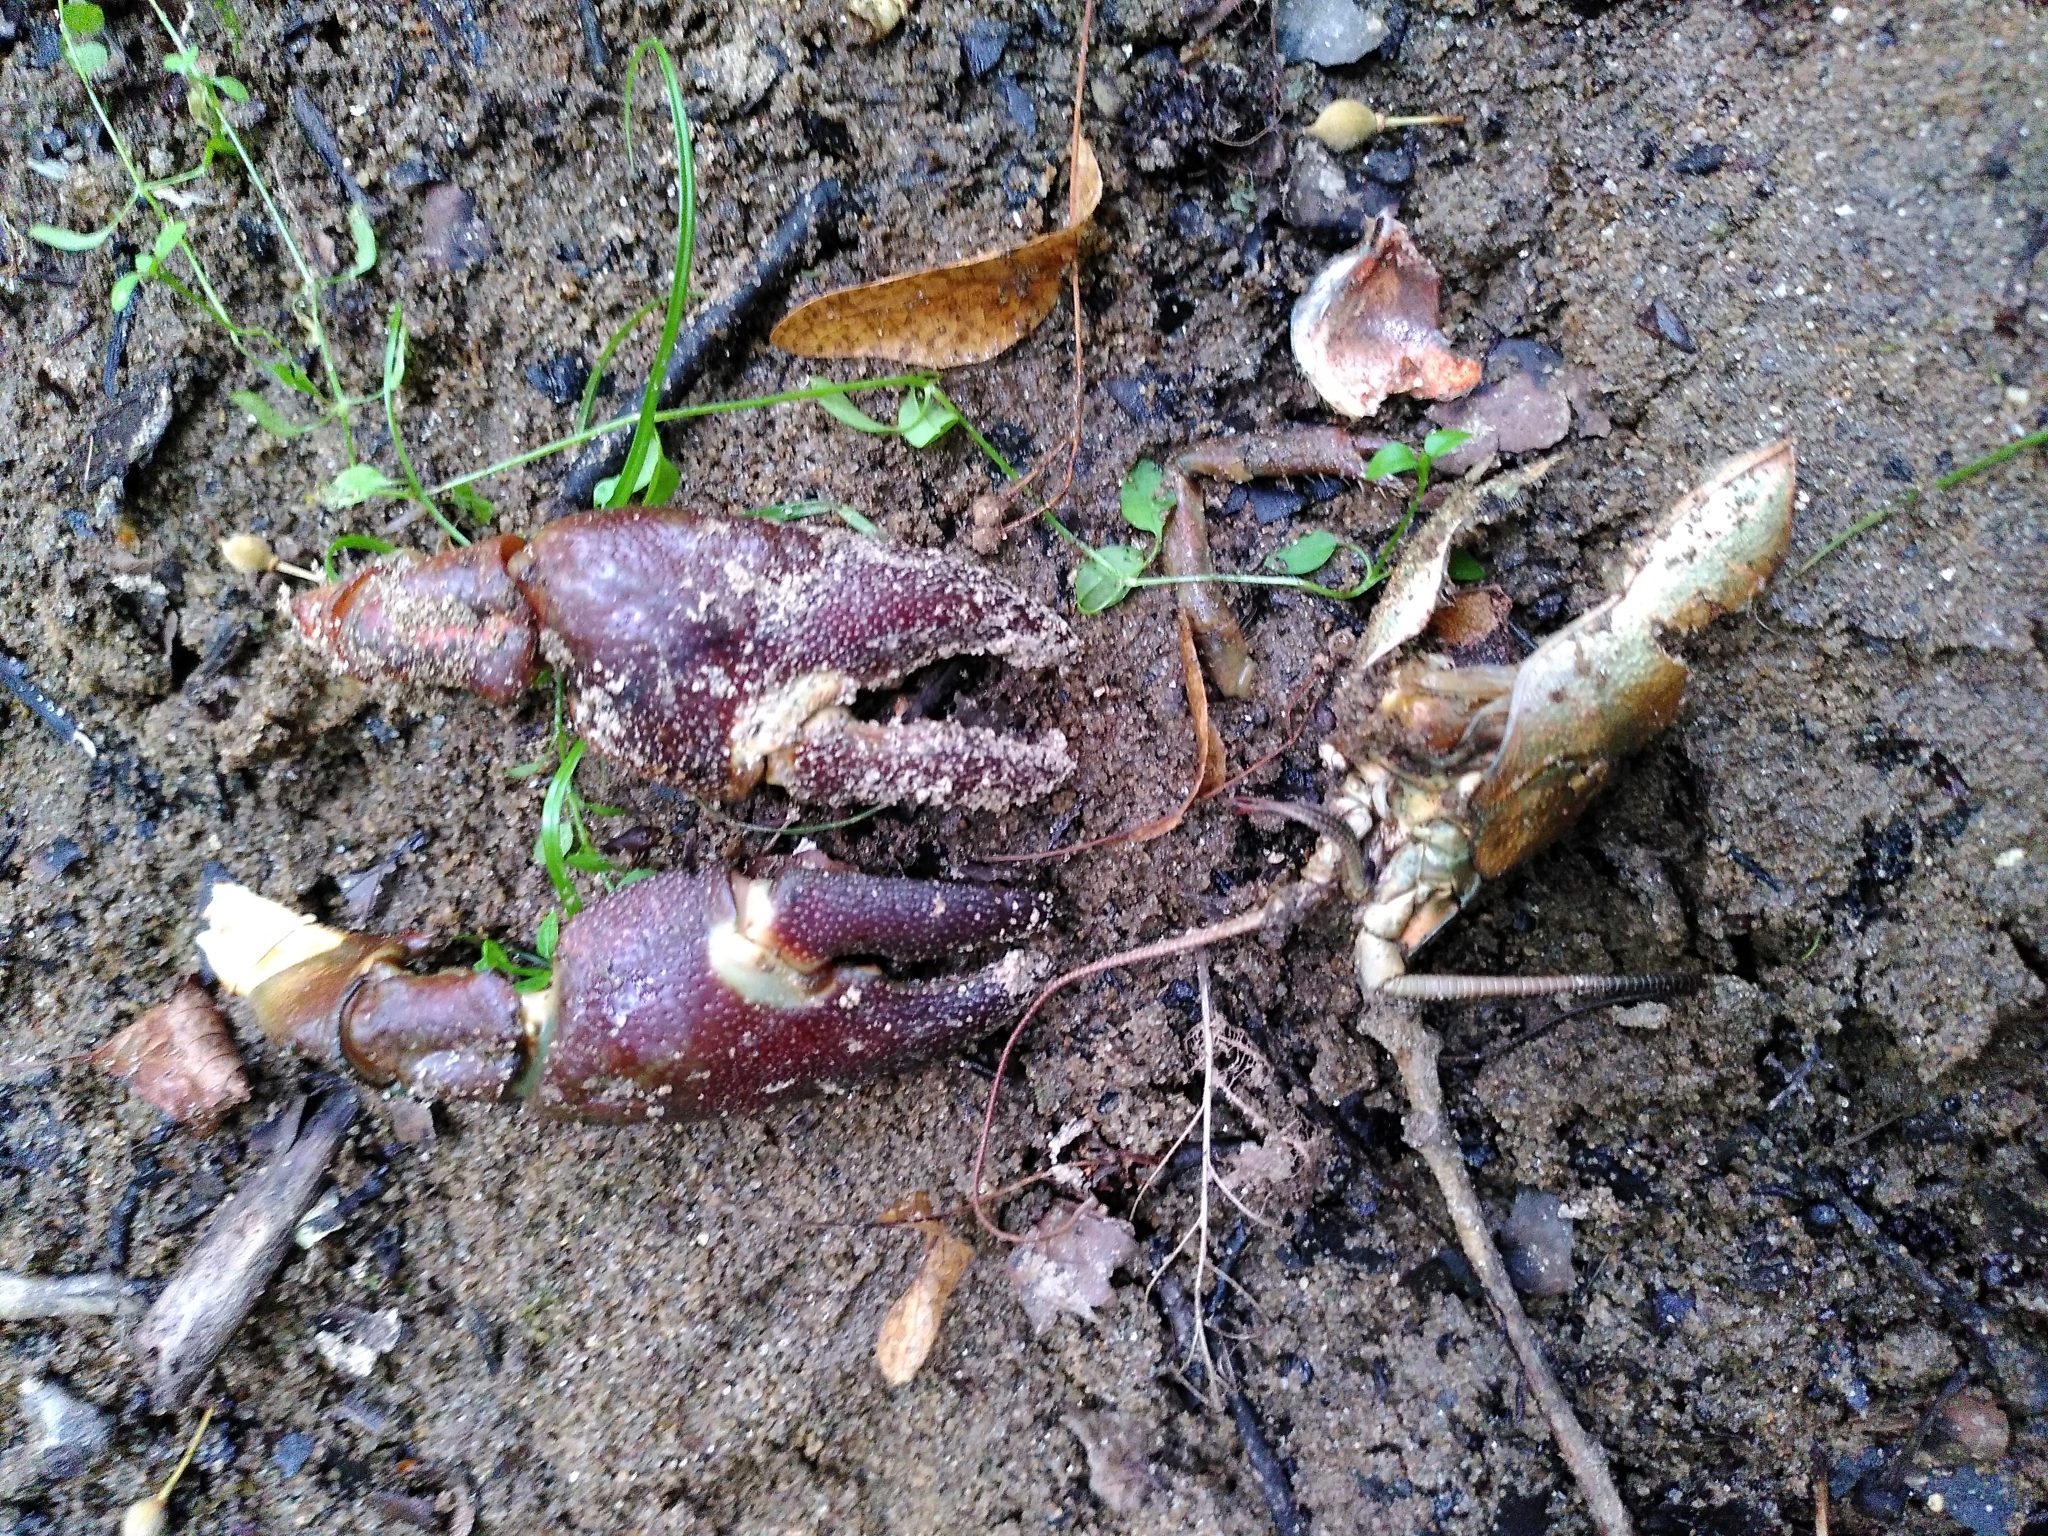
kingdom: Animalia
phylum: Arthropoda
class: Malacostraca
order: Decapoda
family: Astacidae
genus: Pacifastacus
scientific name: Pacifastacus leniusculus
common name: Signal crayfish
